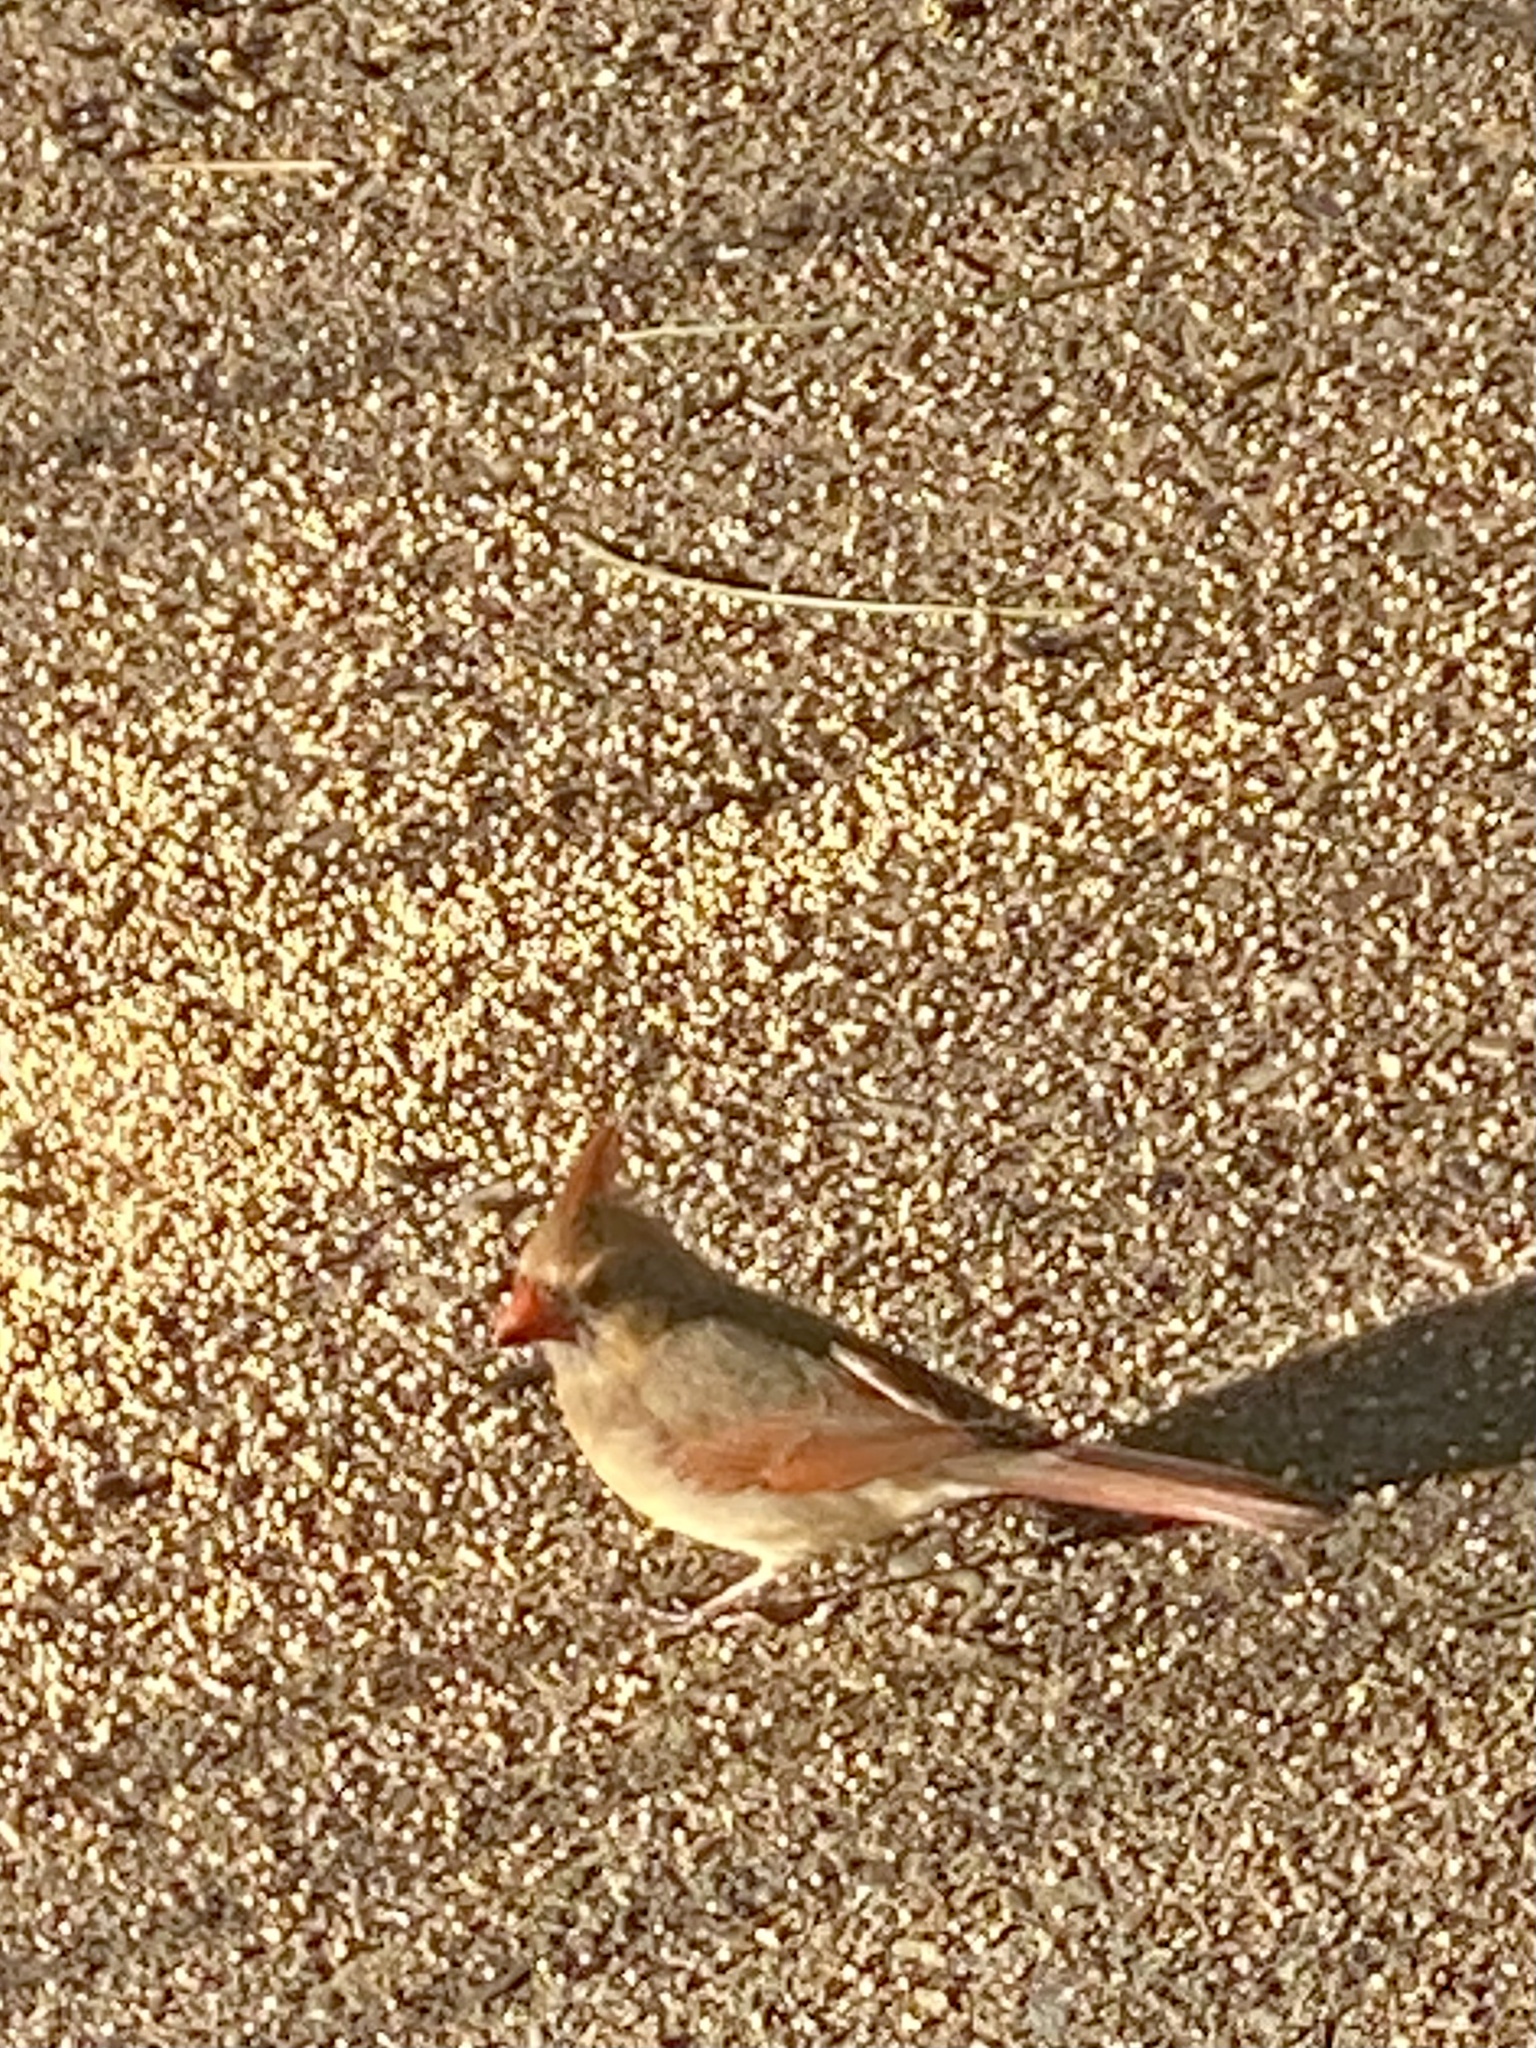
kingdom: Animalia
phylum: Chordata
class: Aves
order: Passeriformes
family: Cardinalidae
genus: Cardinalis
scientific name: Cardinalis cardinalis
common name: Northern cardinal
